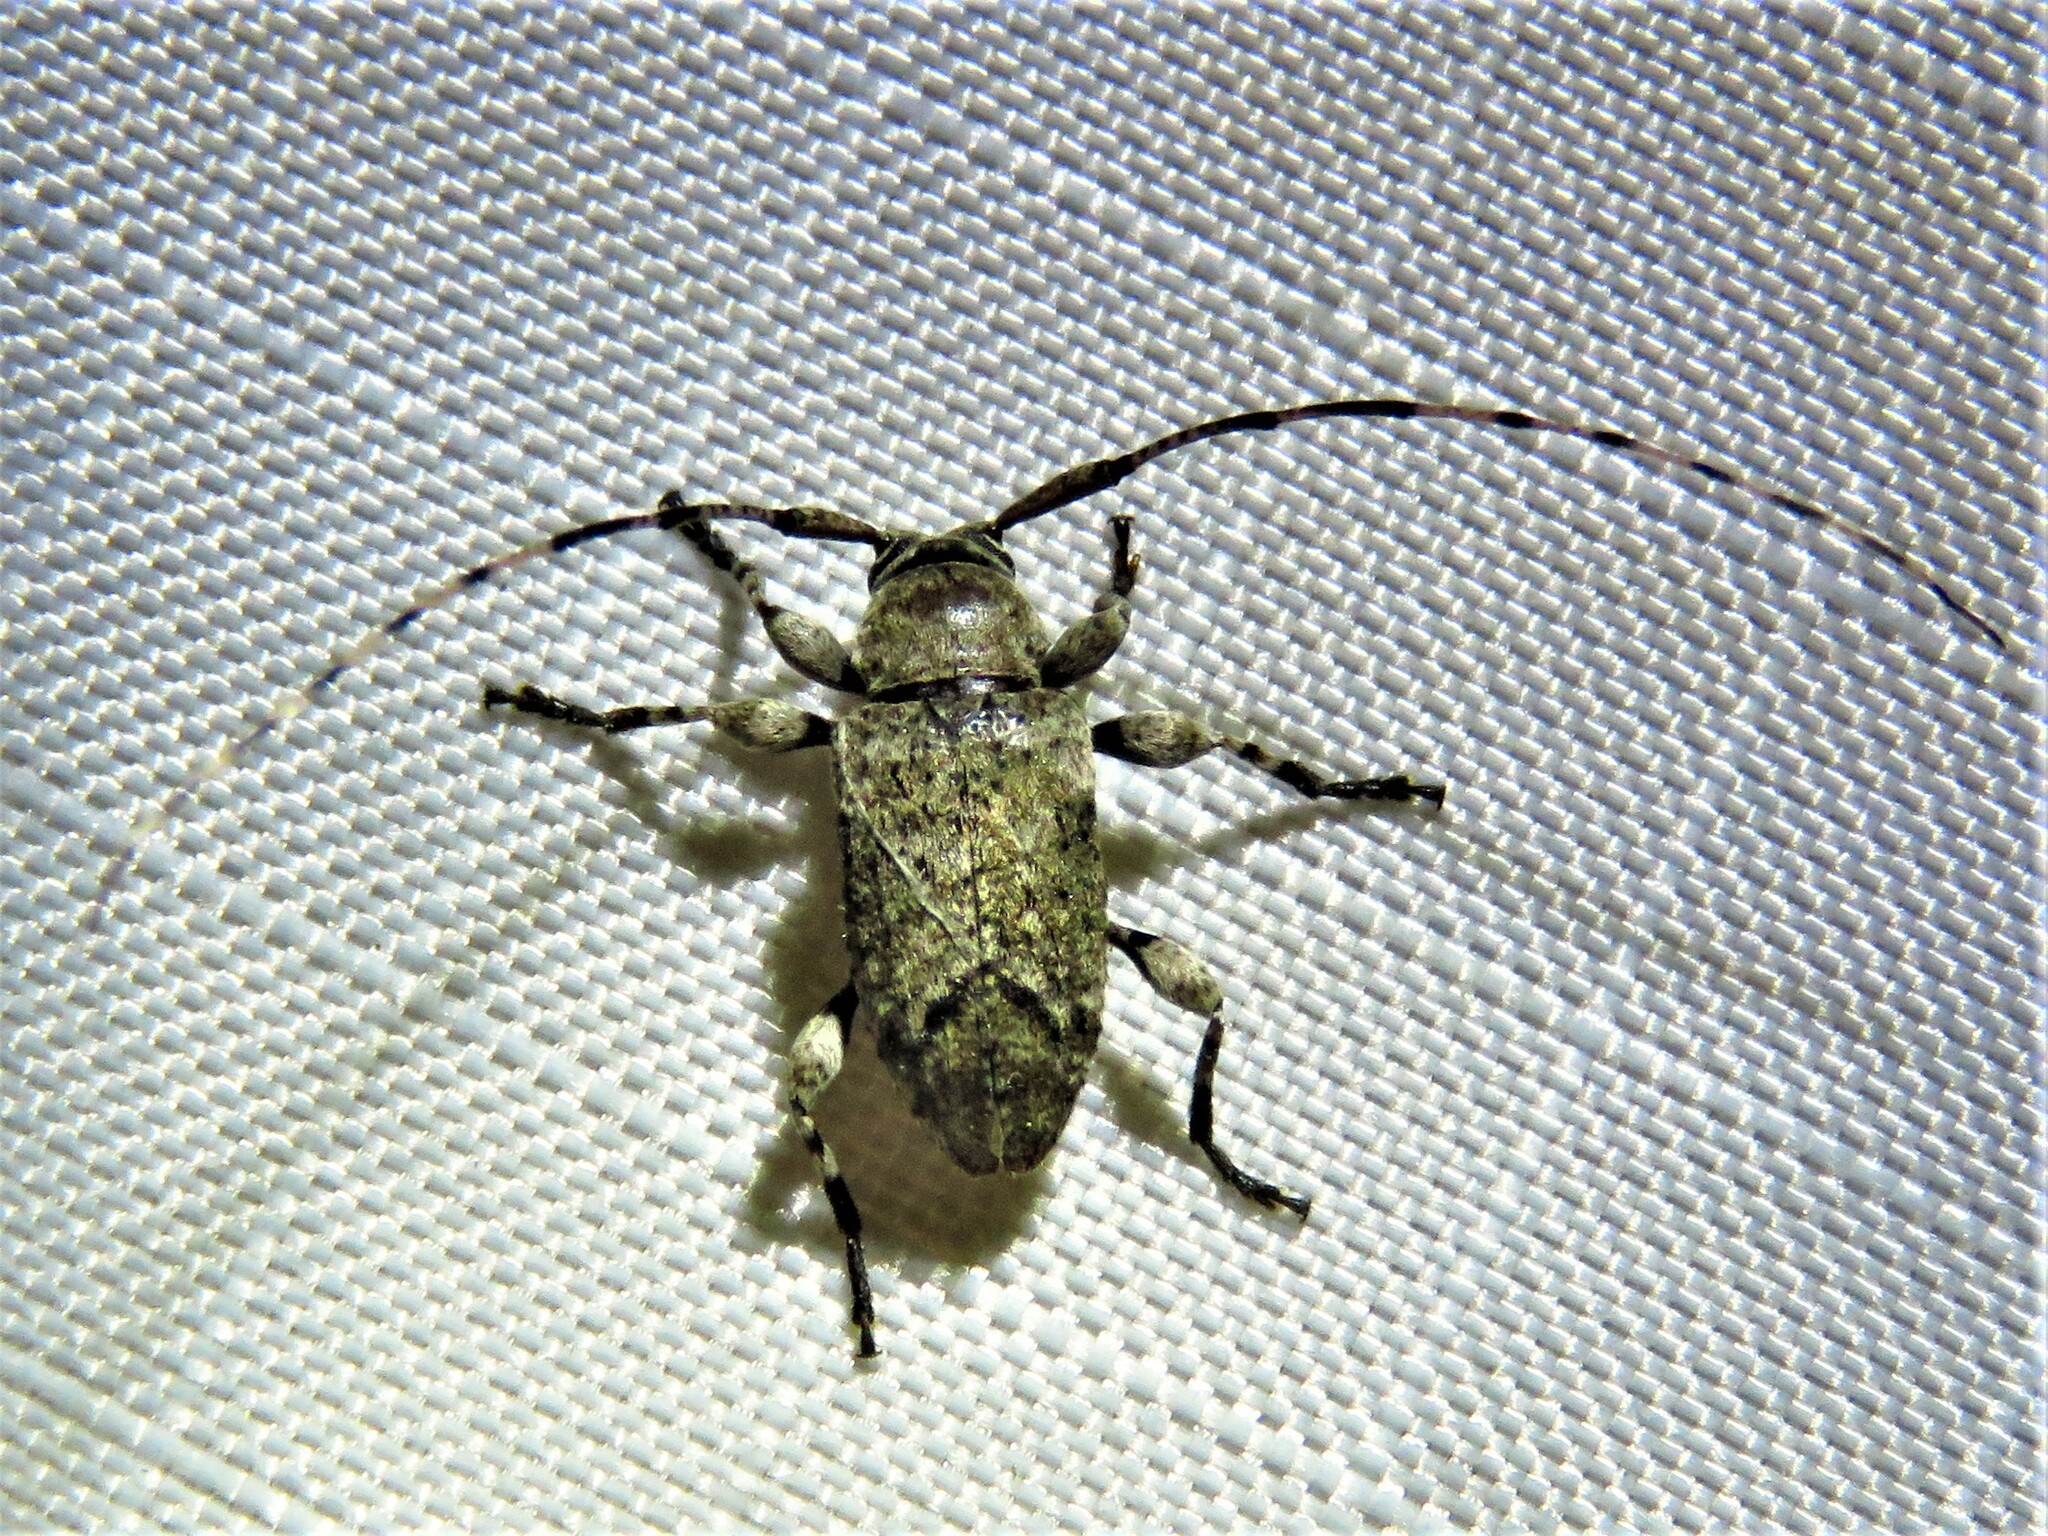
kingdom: Animalia
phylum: Arthropoda
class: Insecta
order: Coleoptera
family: Cerambycidae
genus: Sternidius
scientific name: Sternidius mimeticus
